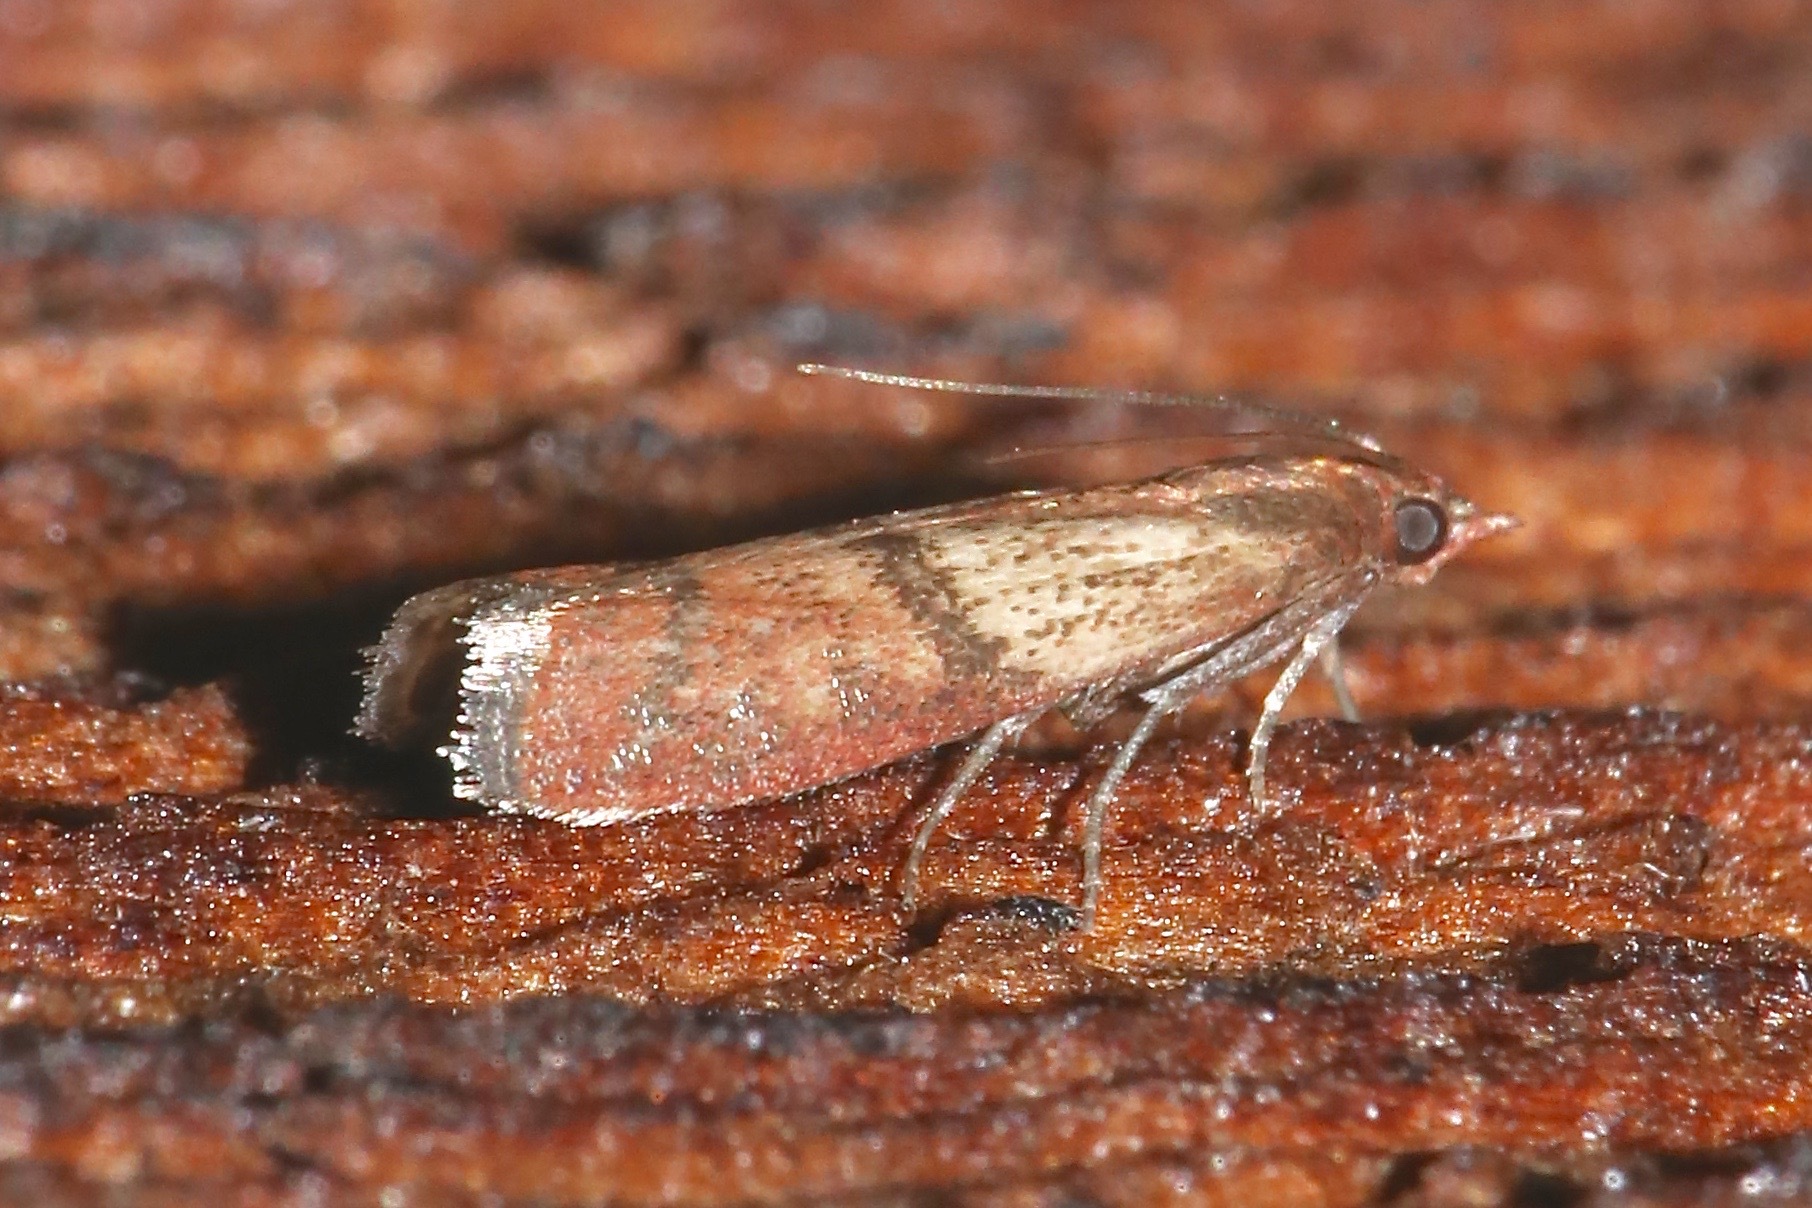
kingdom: Animalia
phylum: Arthropoda
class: Insecta
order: Lepidoptera
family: Pyralidae
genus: Plodia
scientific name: Plodia interpunctella
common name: Indian meal moth
